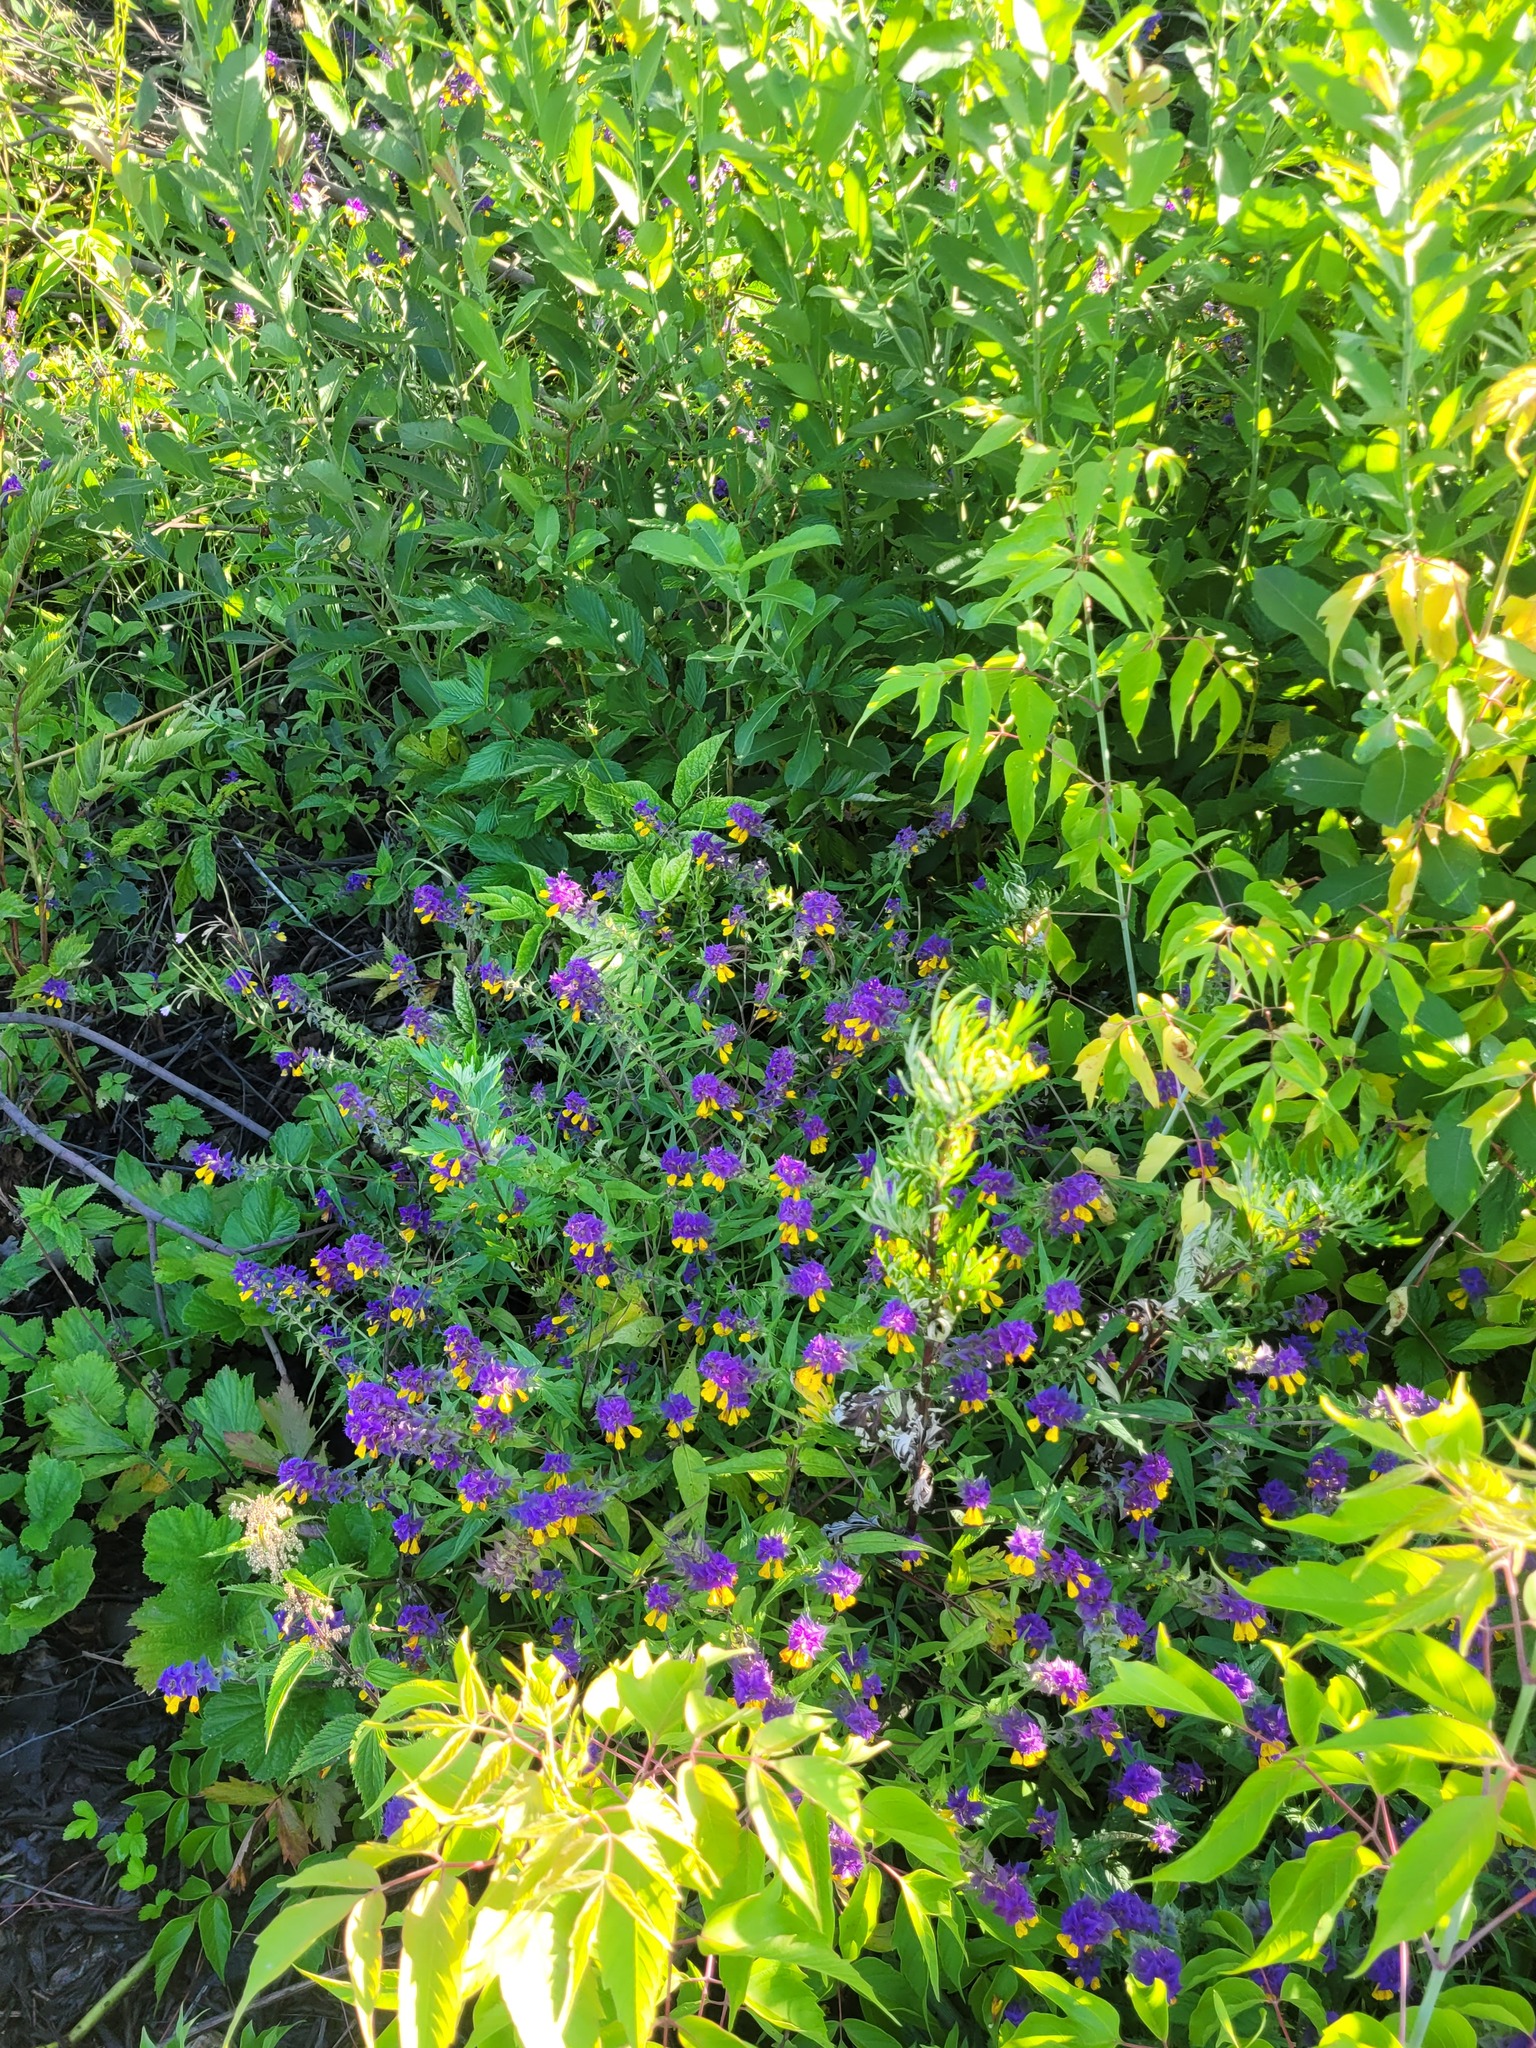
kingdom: Plantae
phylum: Tracheophyta
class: Magnoliopsida
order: Lamiales
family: Orobanchaceae
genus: Melampyrum
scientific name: Melampyrum nemorosum
